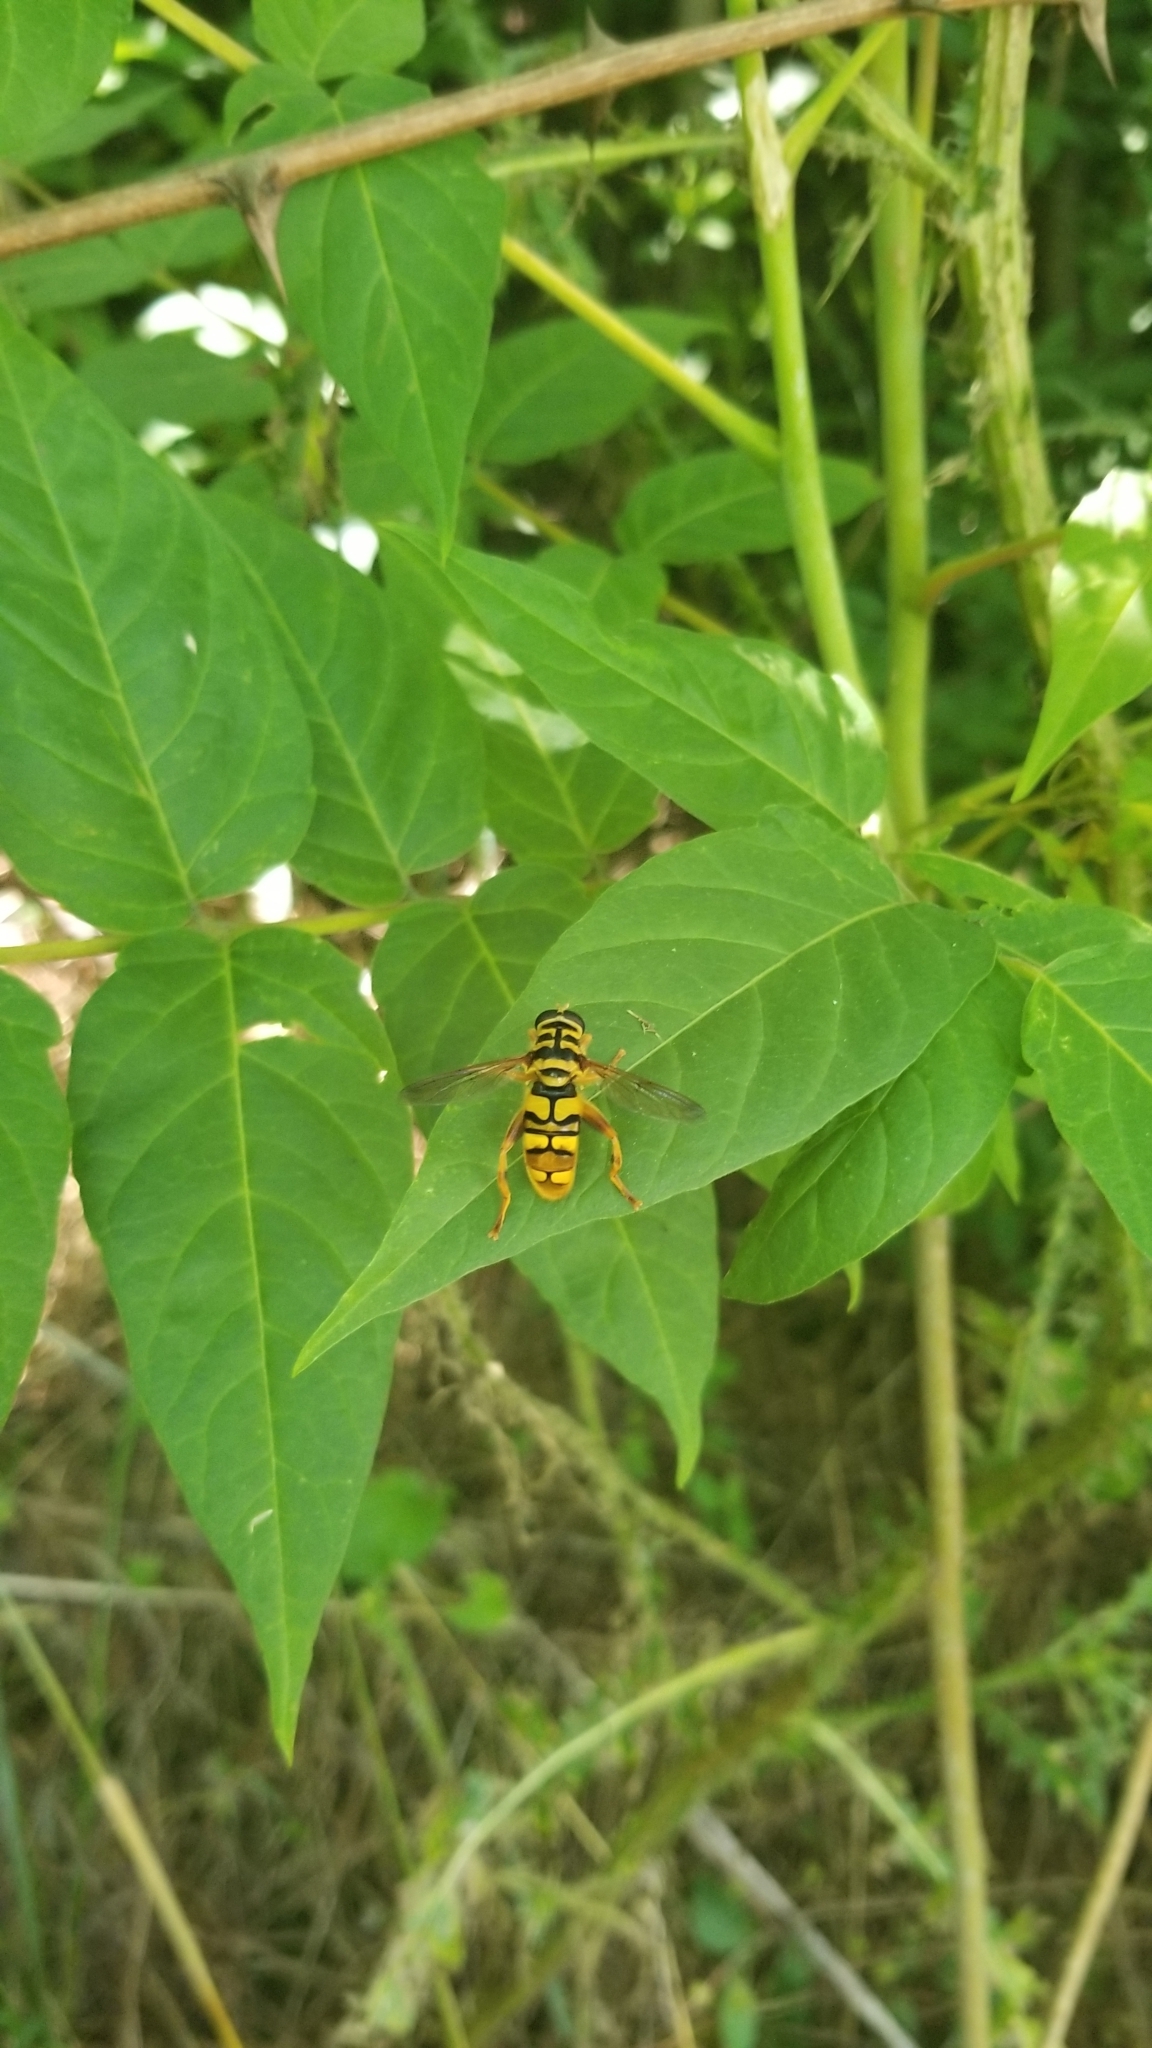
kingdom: Animalia
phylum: Arthropoda
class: Insecta
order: Diptera
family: Syrphidae
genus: Milesia
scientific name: Milesia virginiensis
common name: Virginia giant
